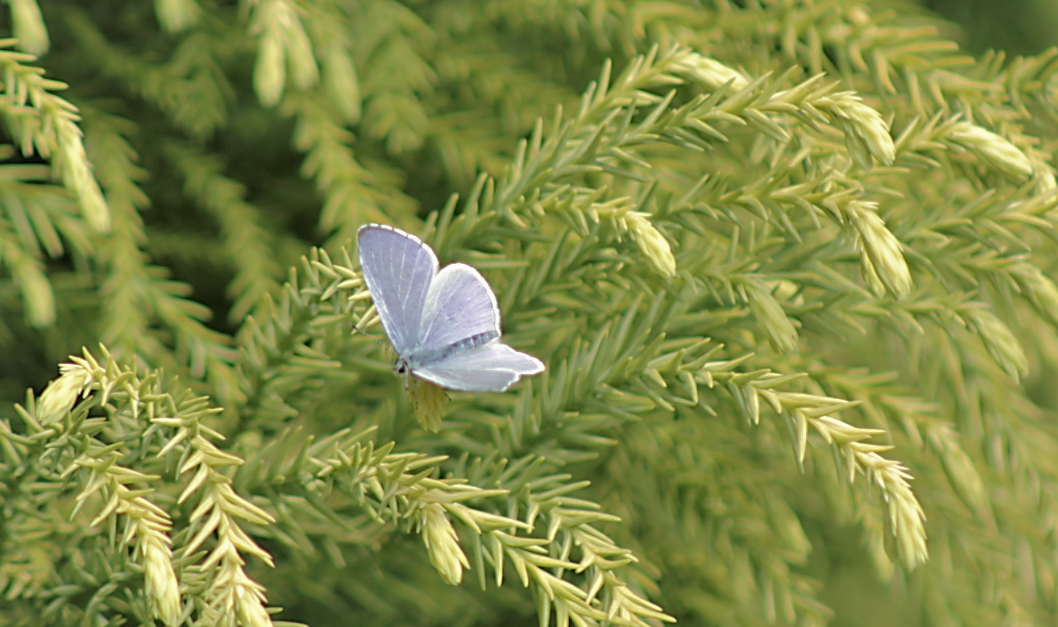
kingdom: Animalia
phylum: Arthropoda
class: Insecta
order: Lepidoptera
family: Lycaenidae
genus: Celastrina
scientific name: Celastrina argiolus
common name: Holly blue
